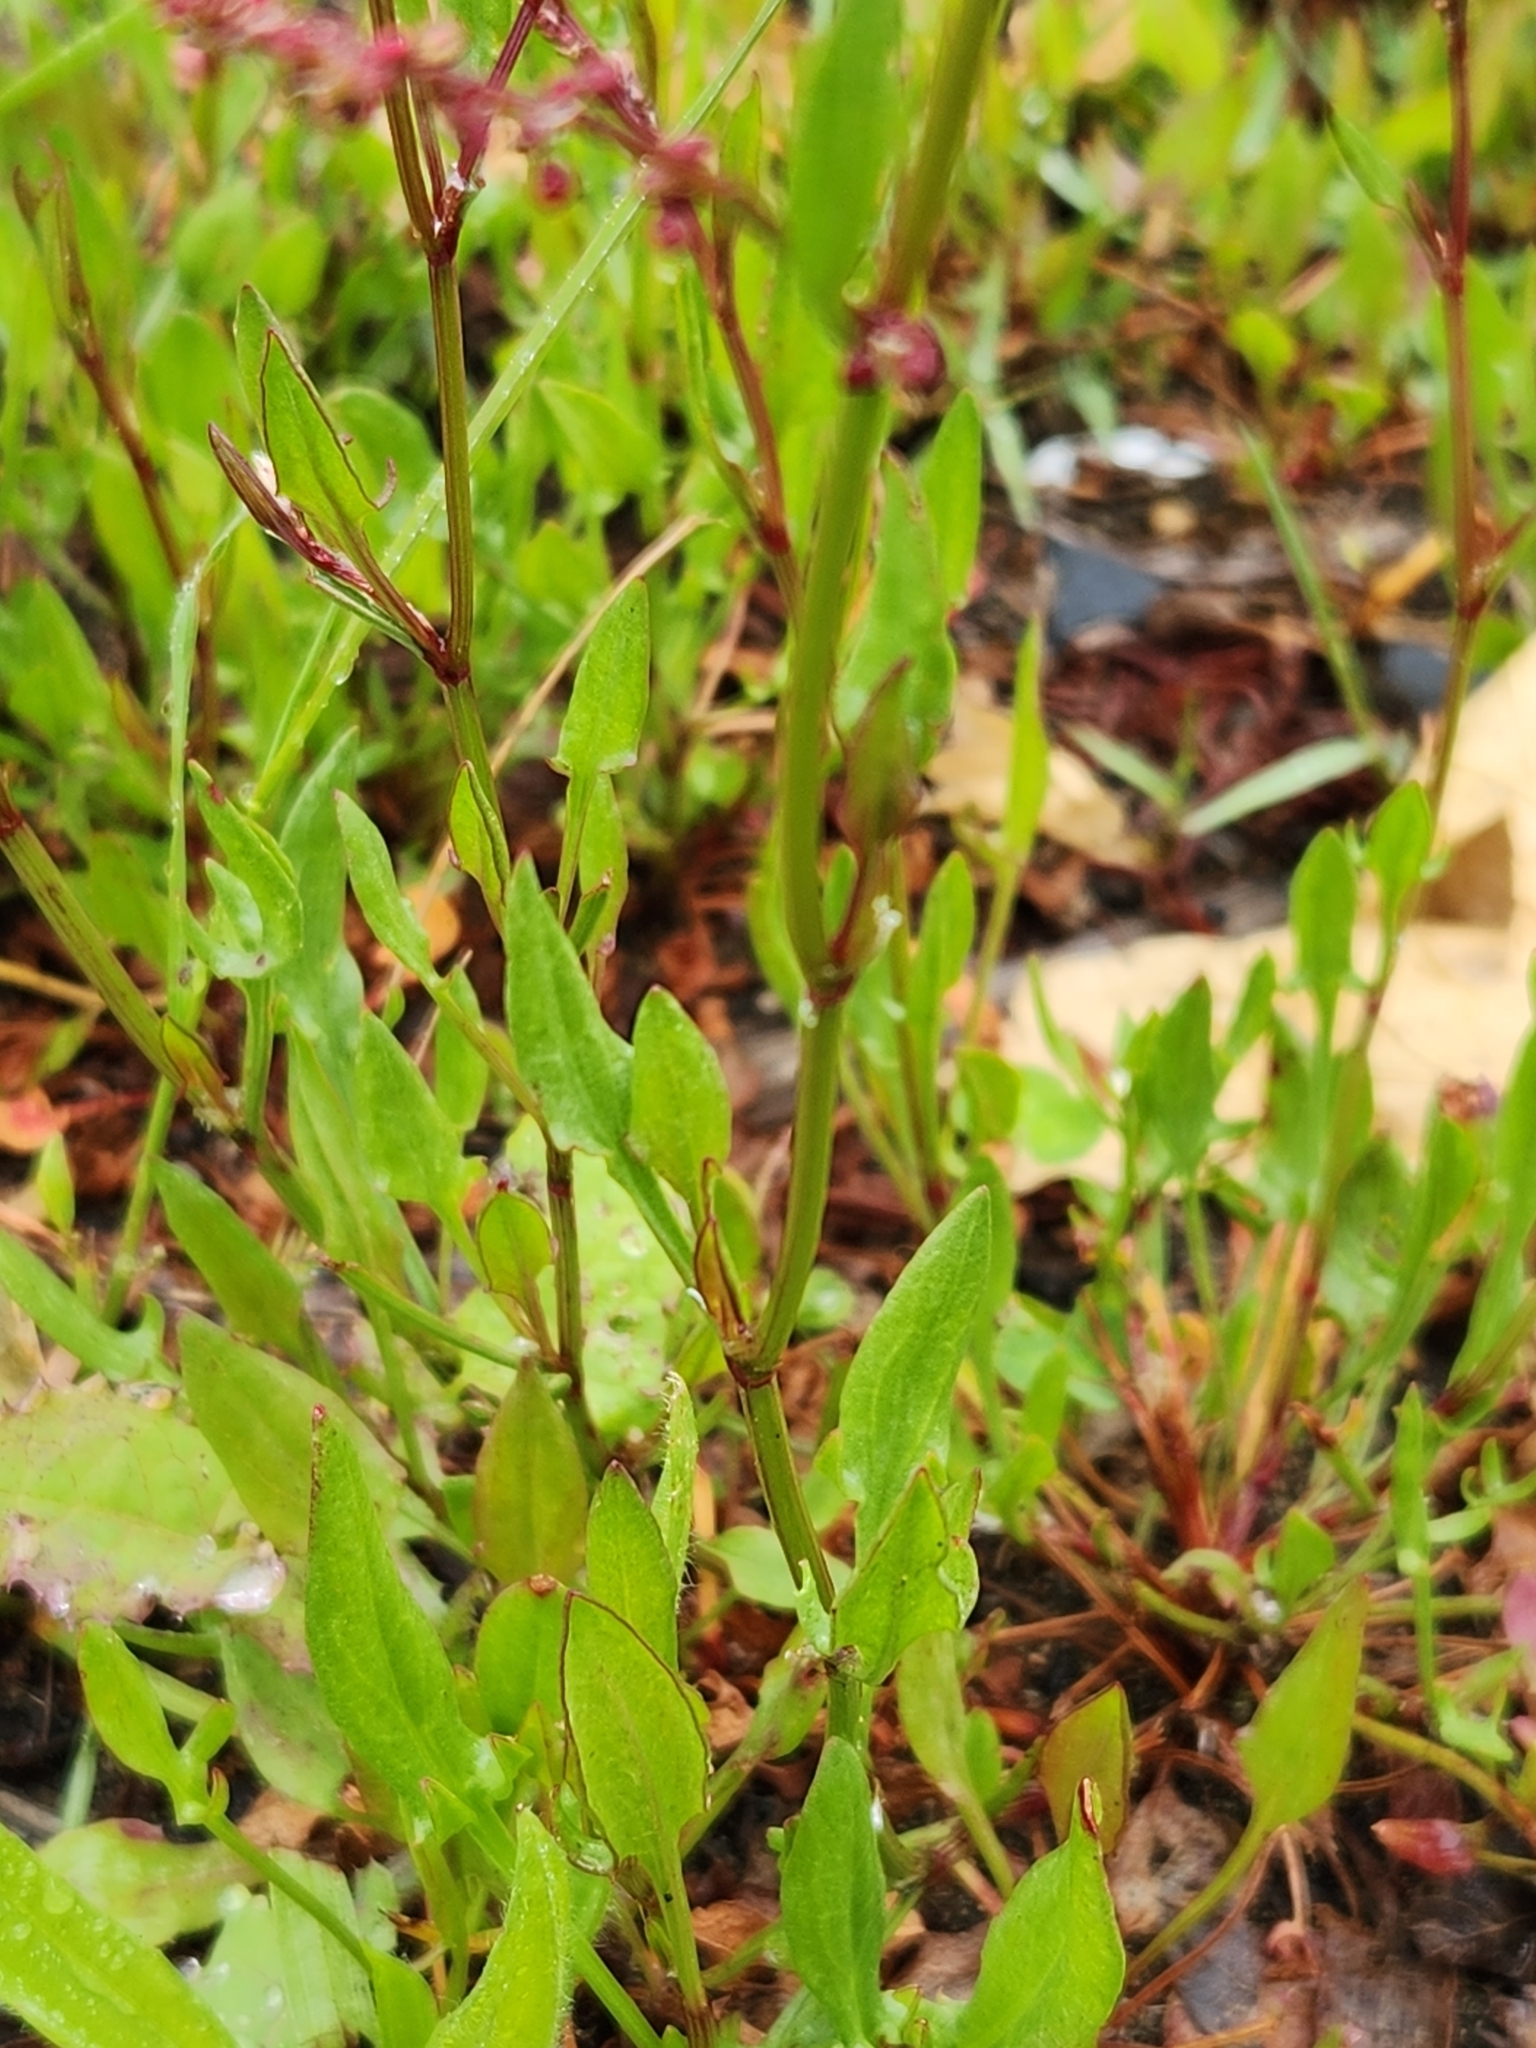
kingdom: Plantae
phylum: Tracheophyta
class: Magnoliopsida
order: Caryophyllales
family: Polygonaceae
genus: Rumex
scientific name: Rumex acetosella
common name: Common sheep sorrel
